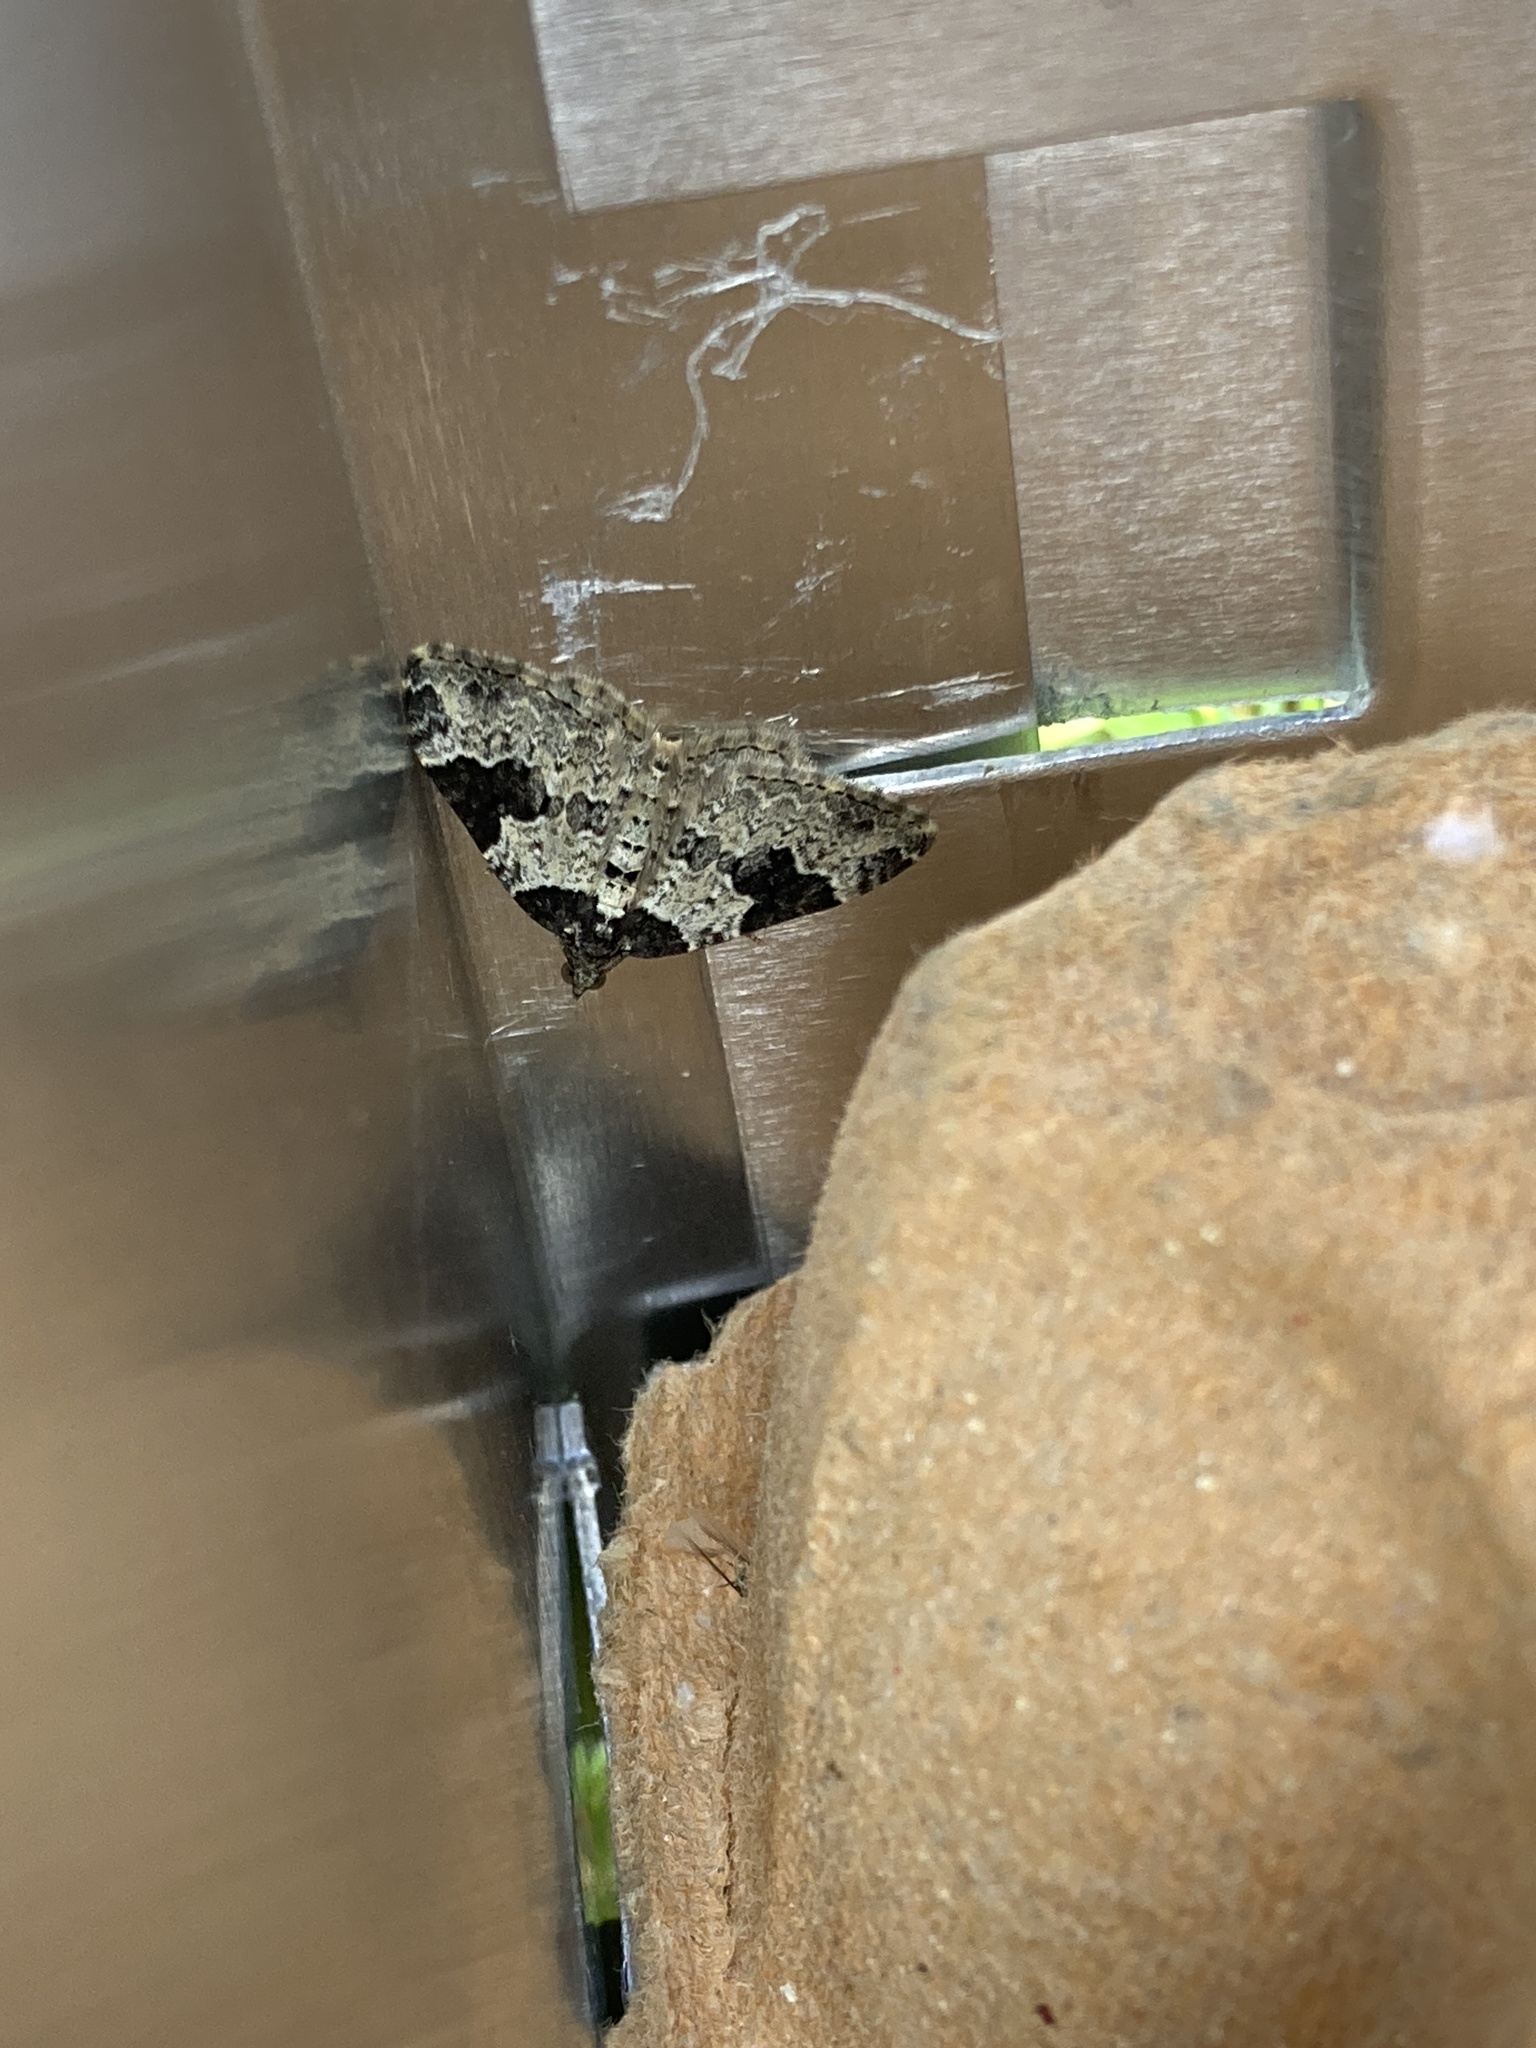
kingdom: Animalia
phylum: Arthropoda
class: Insecta
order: Lepidoptera
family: Geometridae
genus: Xanthorhoe
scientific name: Xanthorhoe fluctuata
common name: Garden carpet
